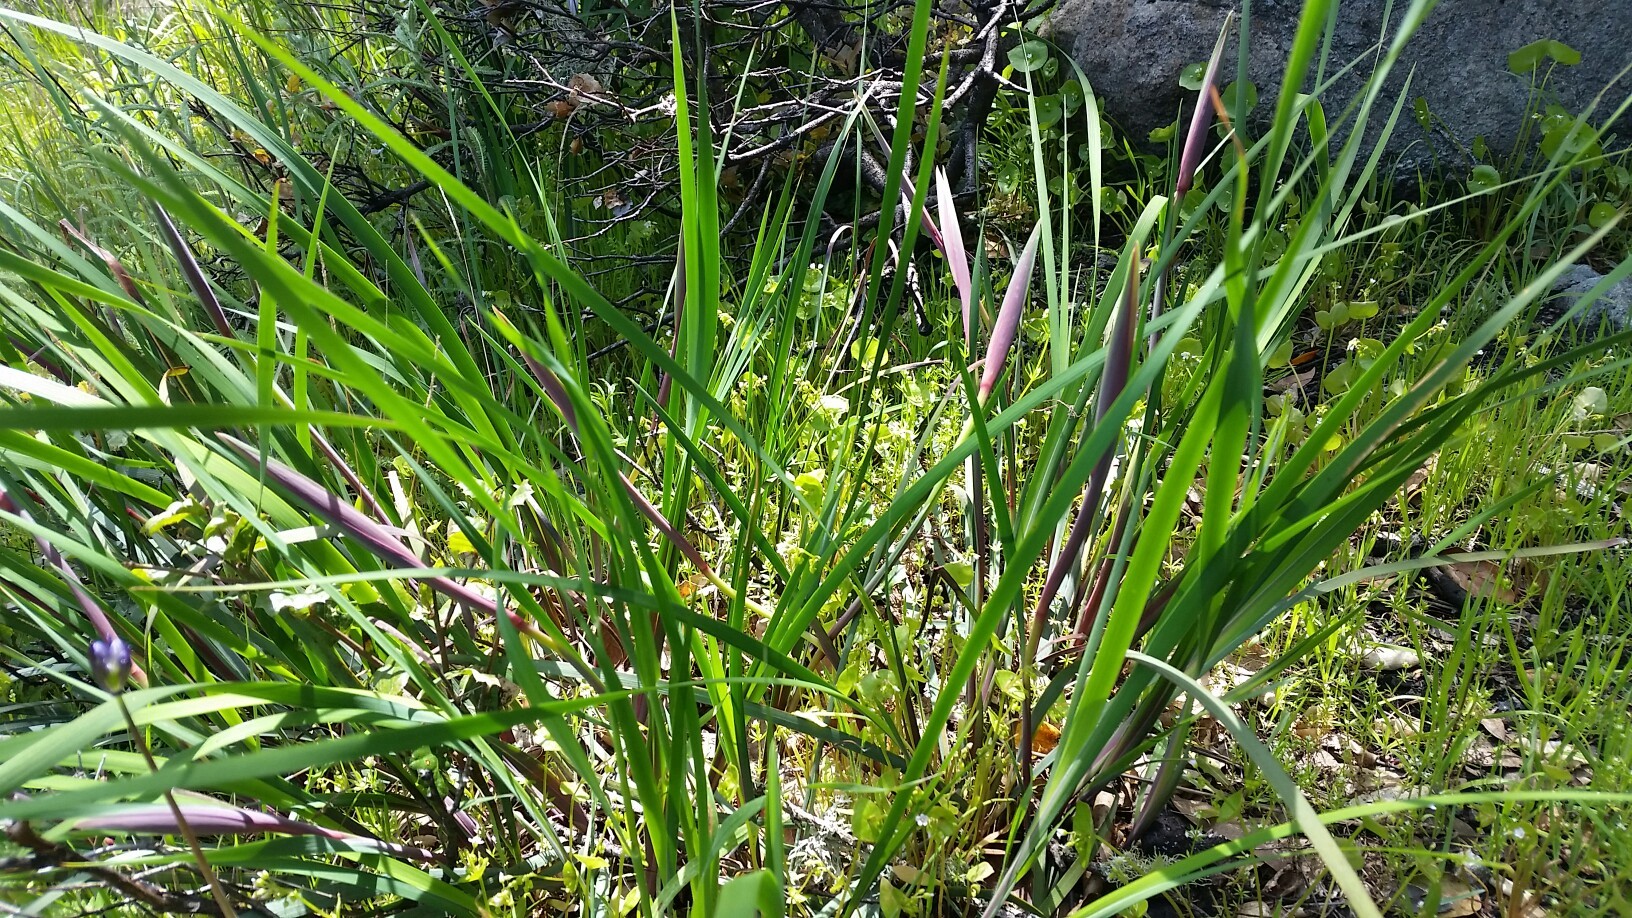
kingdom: Plantae
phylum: Tracheophyta
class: Liliopsida
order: Asparagales
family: Iridaceae
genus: Iris
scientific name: Iris fernaldii
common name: Fernald's iris
